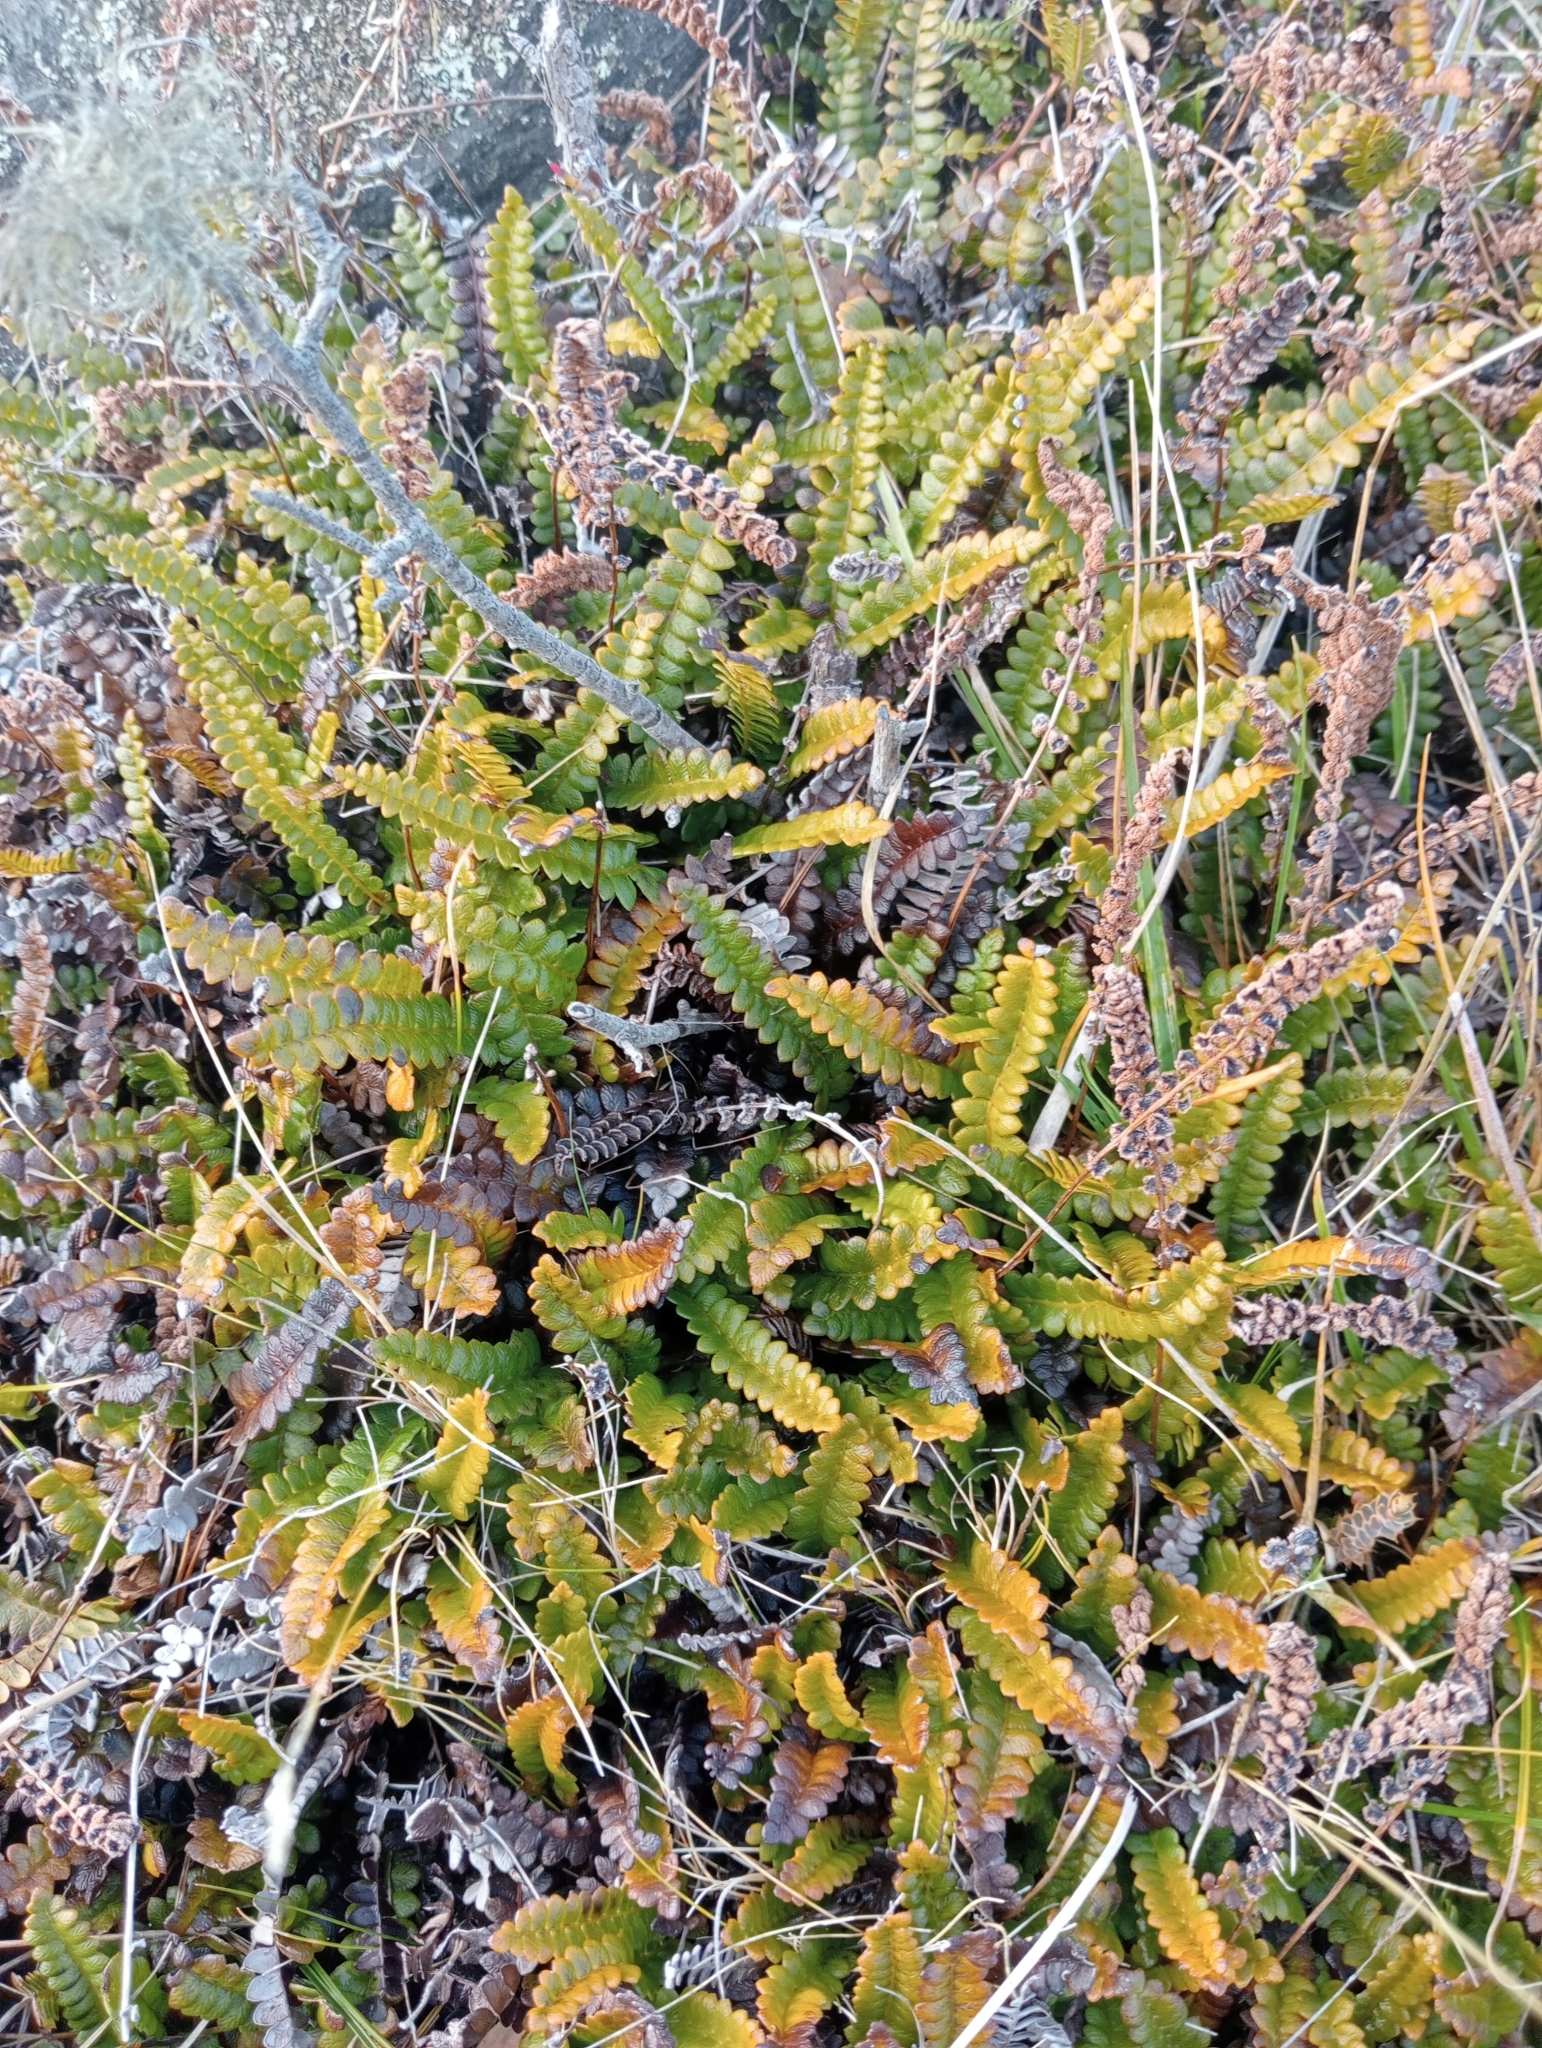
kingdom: Plantae
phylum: Tracheophyta
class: Polypodiopsida
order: Polypodiales
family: Blechnaceae
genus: Austroblechnum
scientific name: Austroblechnum penna-marina
